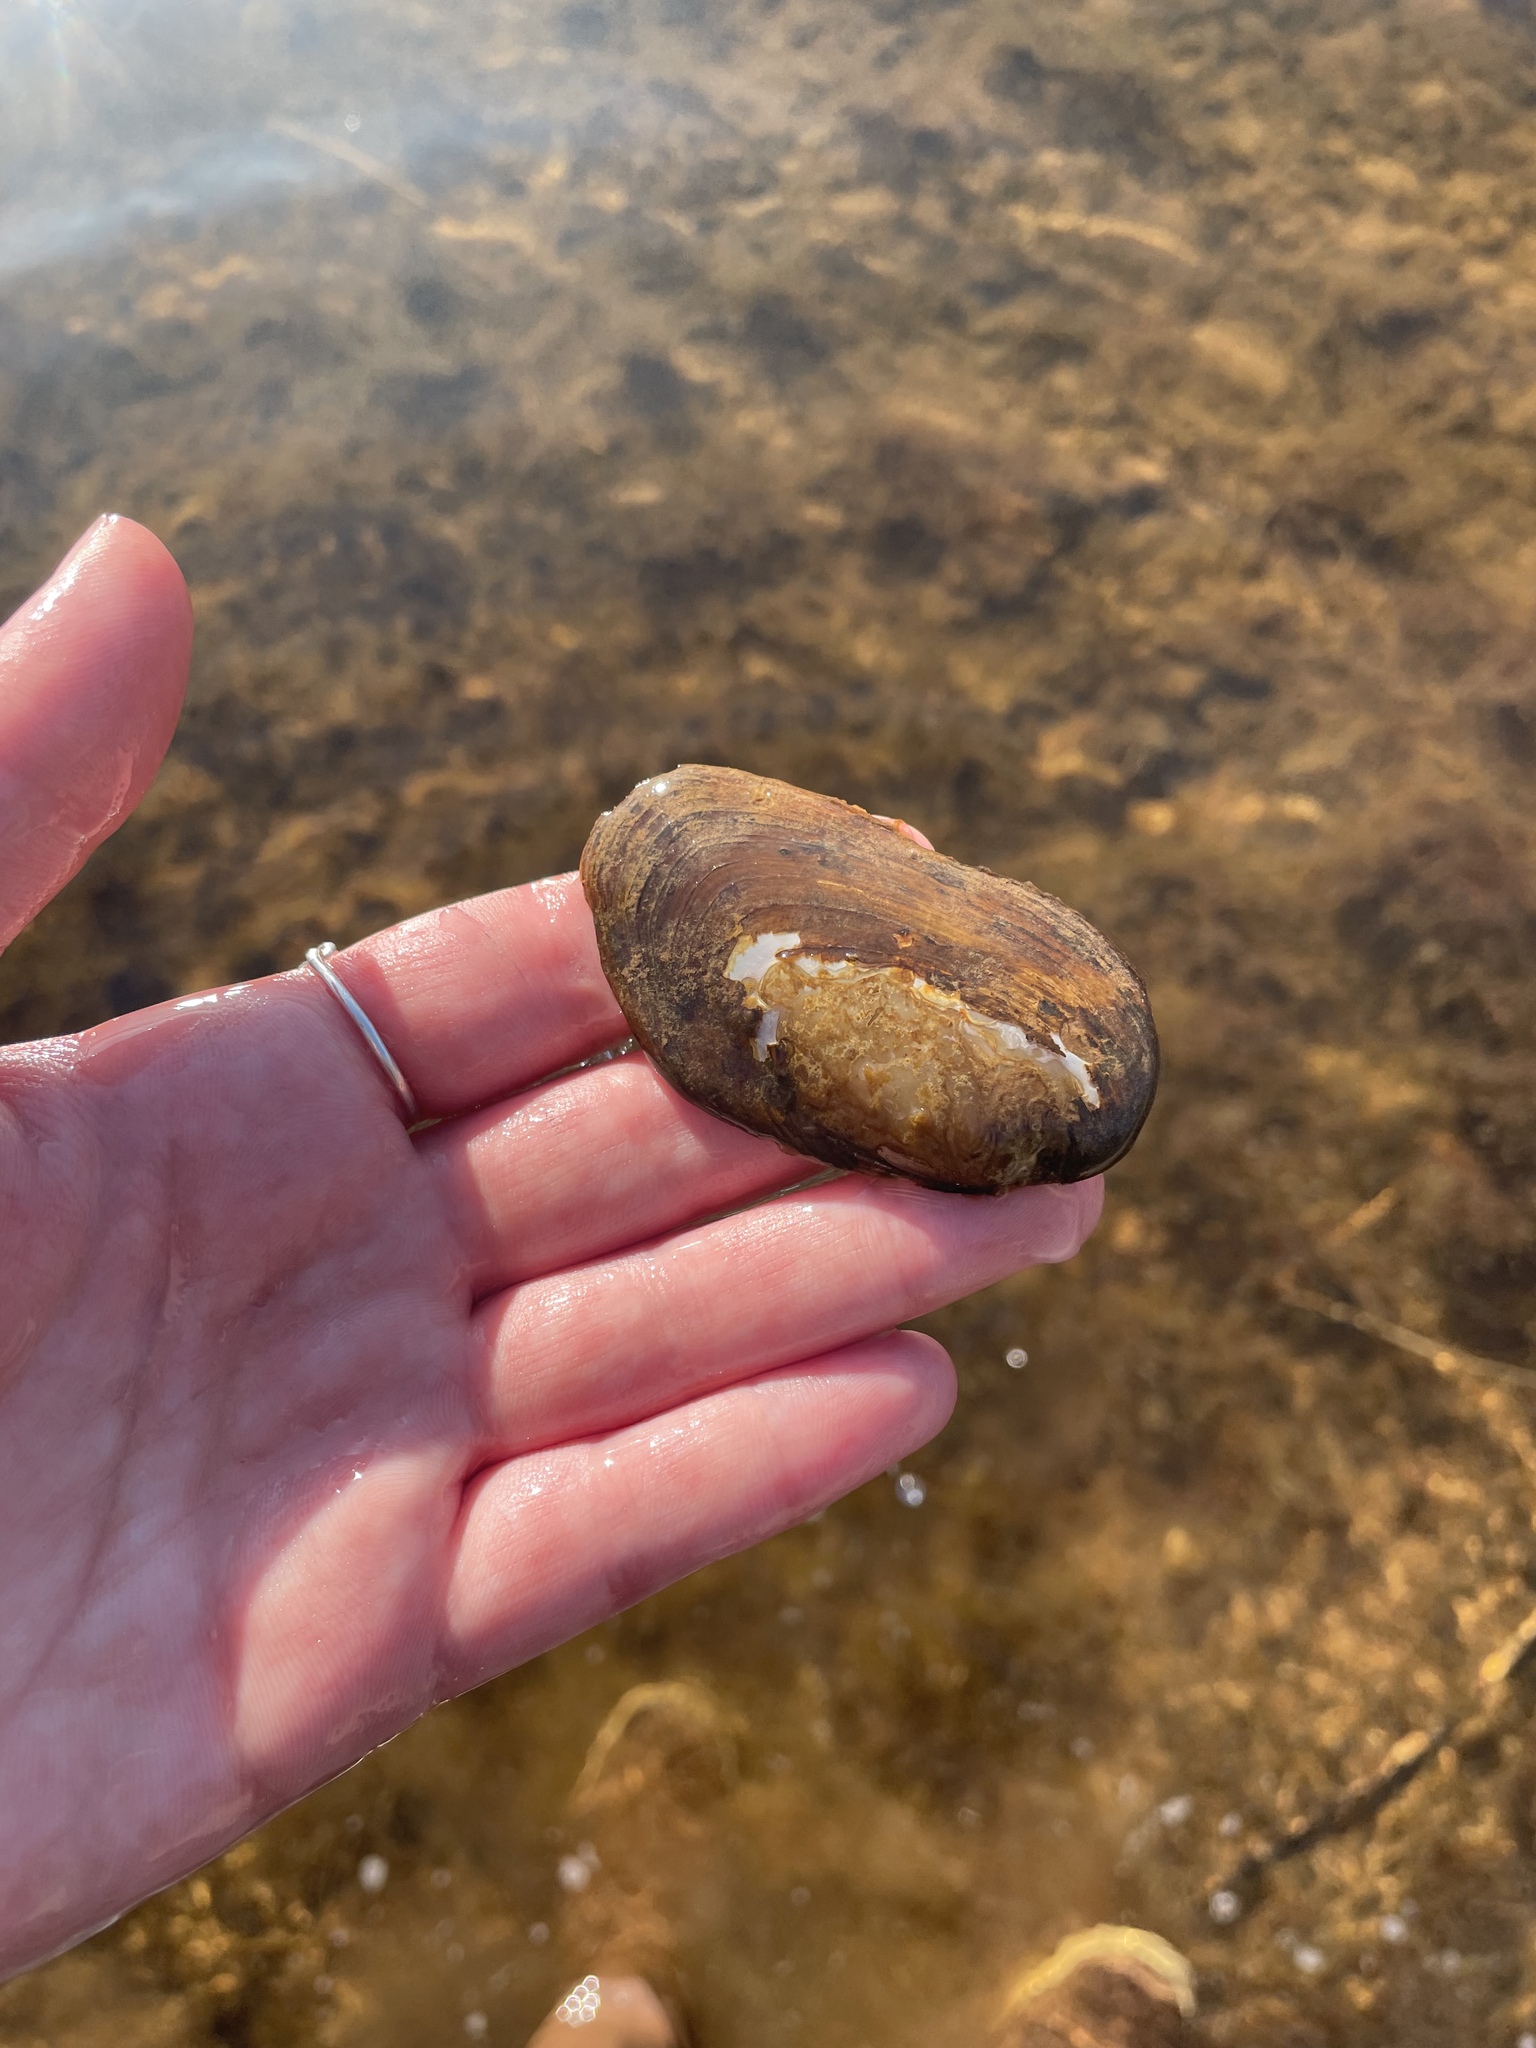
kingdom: Animalia
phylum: Mollusca
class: Bivalvia
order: Unionida
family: Unionidae
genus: Elliptio
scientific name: Elliptio complanata
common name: Eastern elliptio
